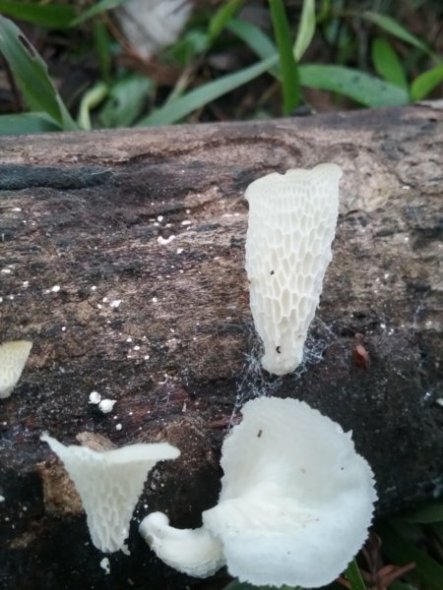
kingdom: Fungi
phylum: Basidiomycota
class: Agaricomycetes
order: Polyporales
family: Polyporaceae
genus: Favolus
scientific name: Favolus tenuiculus
